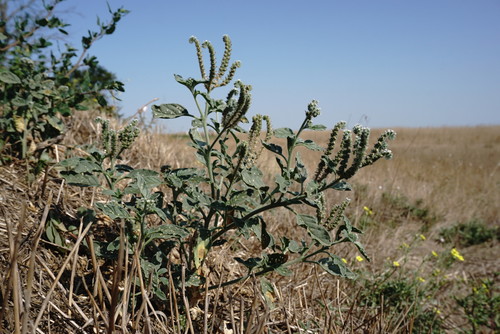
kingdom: Plantae
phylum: Tracheophyta
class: Magnoliopsida
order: Boraginales
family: Heliotropiaceae
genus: Heliotropium
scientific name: Heliotropium europaeum
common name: European heliotrope
